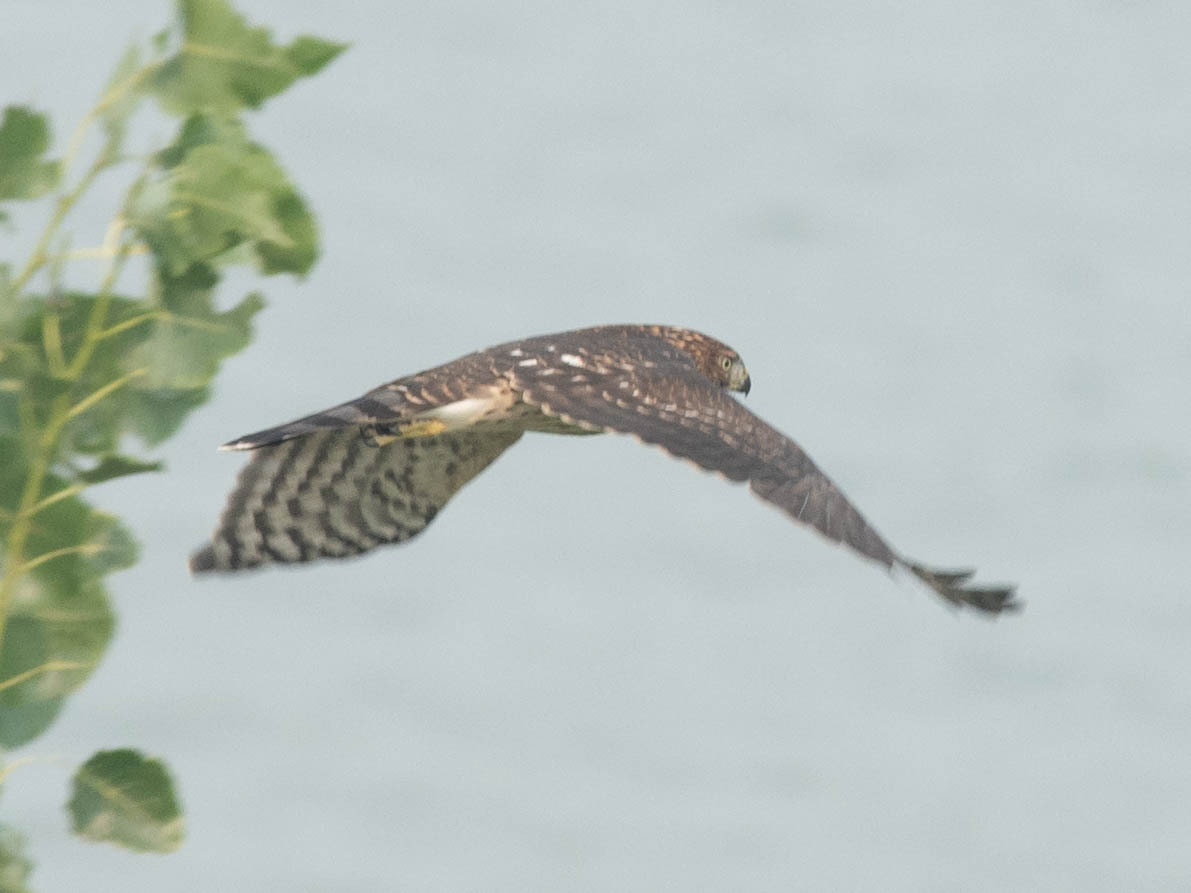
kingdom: Animalia
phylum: Chordata
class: Aves
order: Accipitriformes
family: Accipitridae
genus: Accipiter
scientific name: Accipiter cooperii
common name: Cooper's hawk
